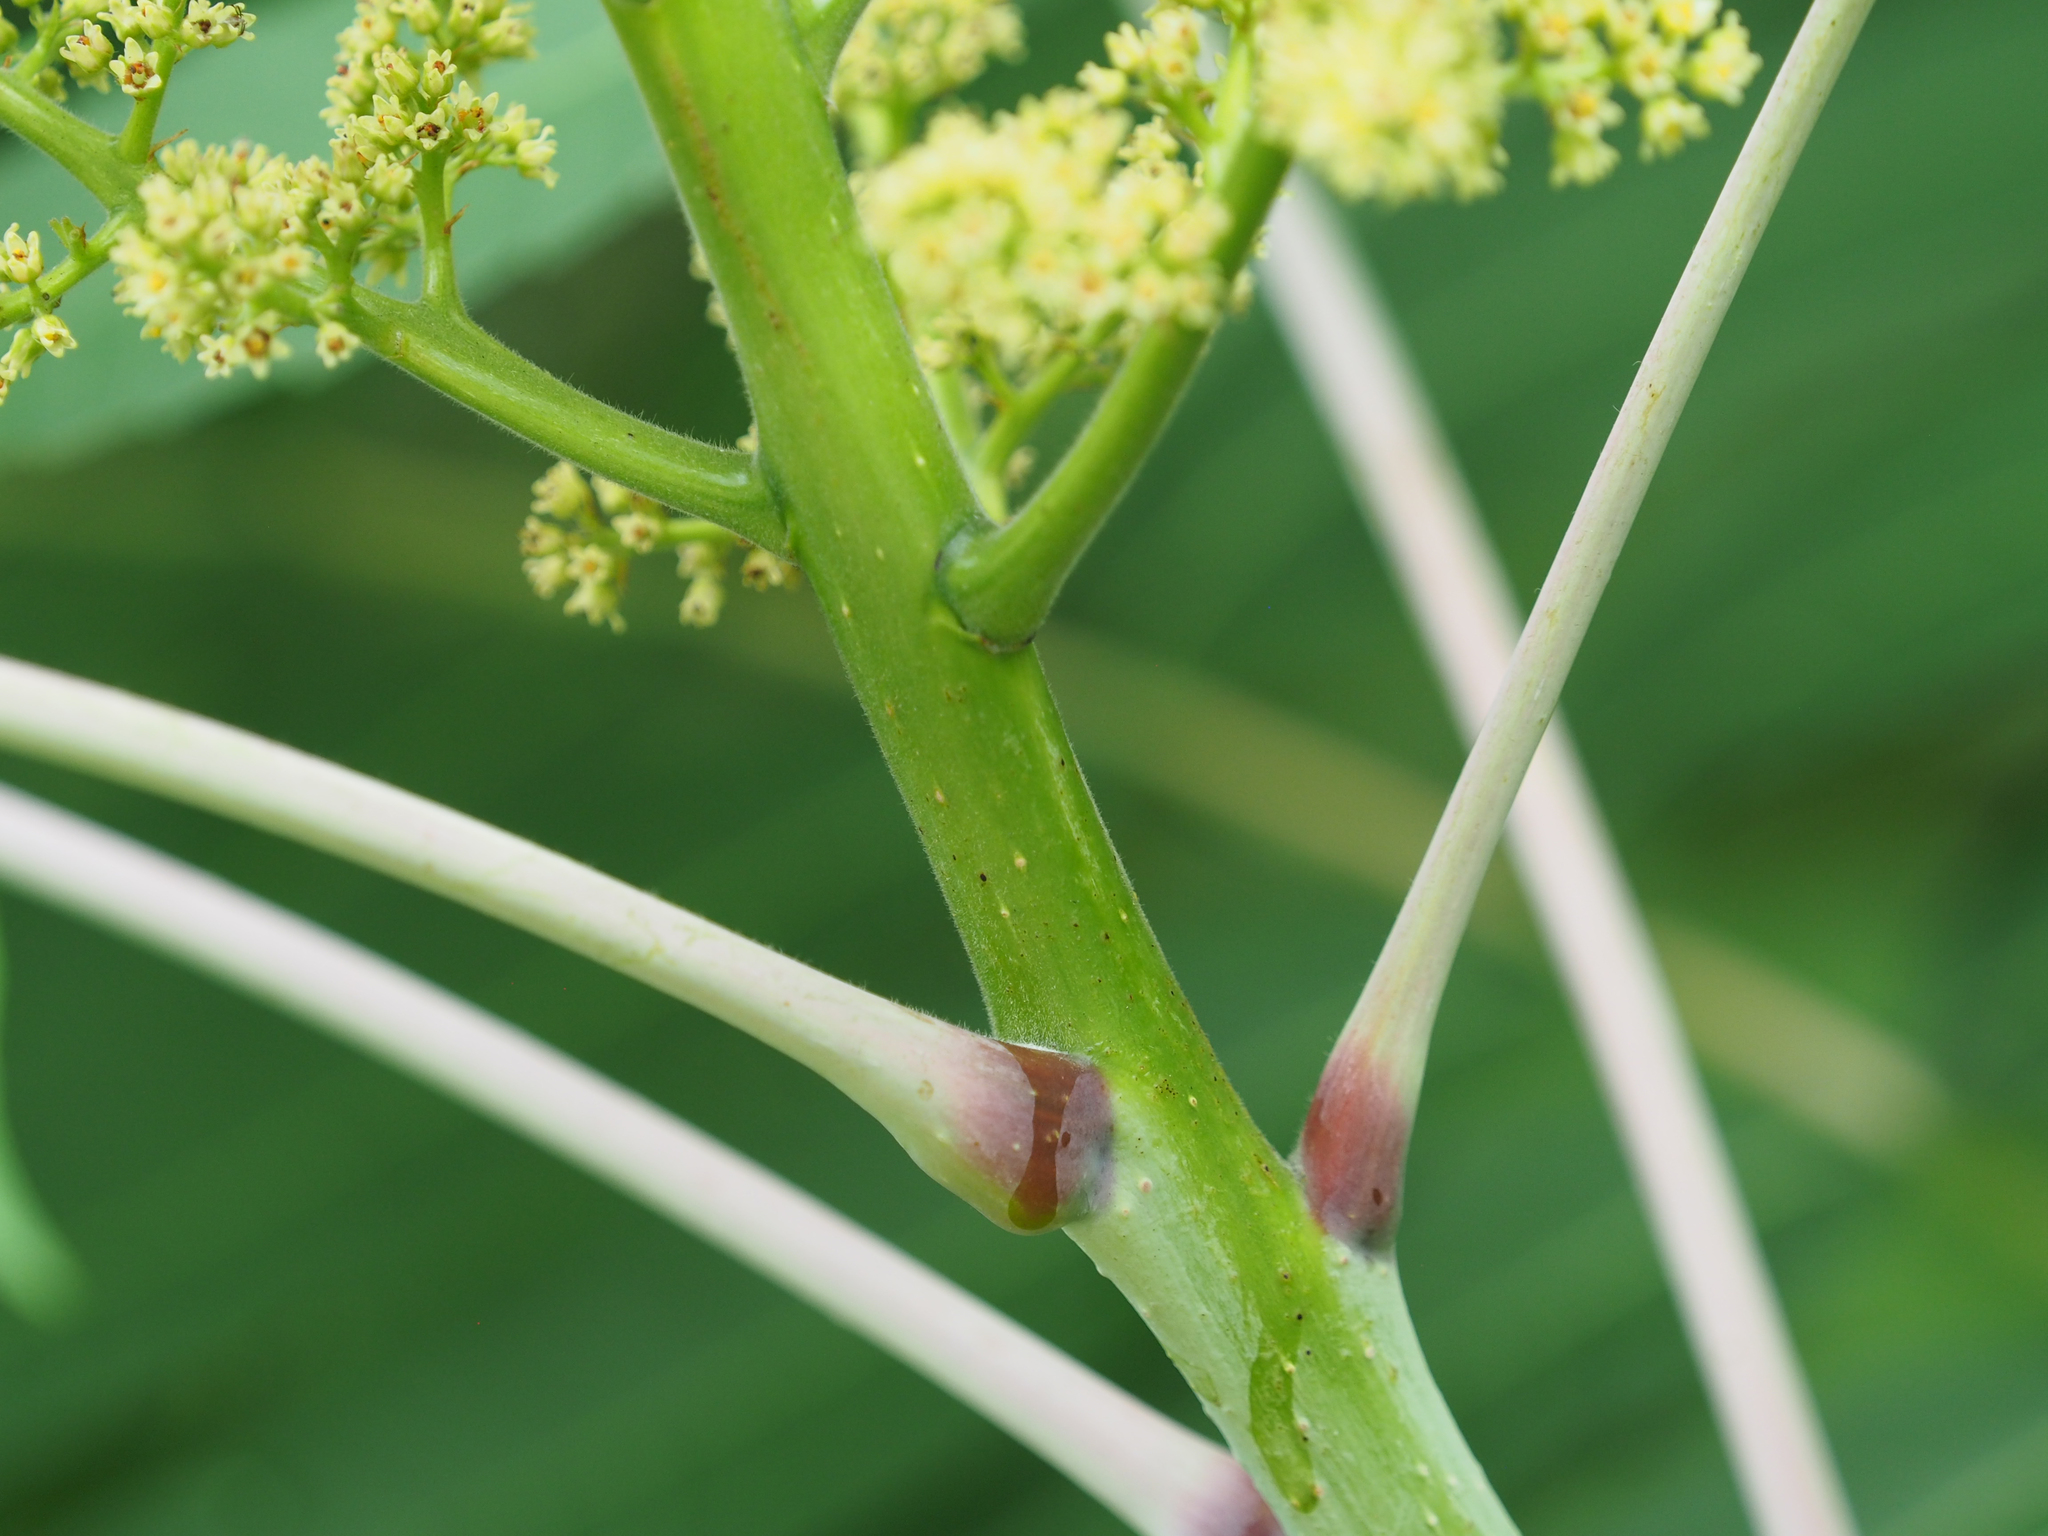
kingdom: Plantae
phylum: Tracheophyta
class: Magnoliopsida
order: Sapindales
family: Anacardiaceae
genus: Rhus
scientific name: Rhus glabra
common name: Scarlet sumac
